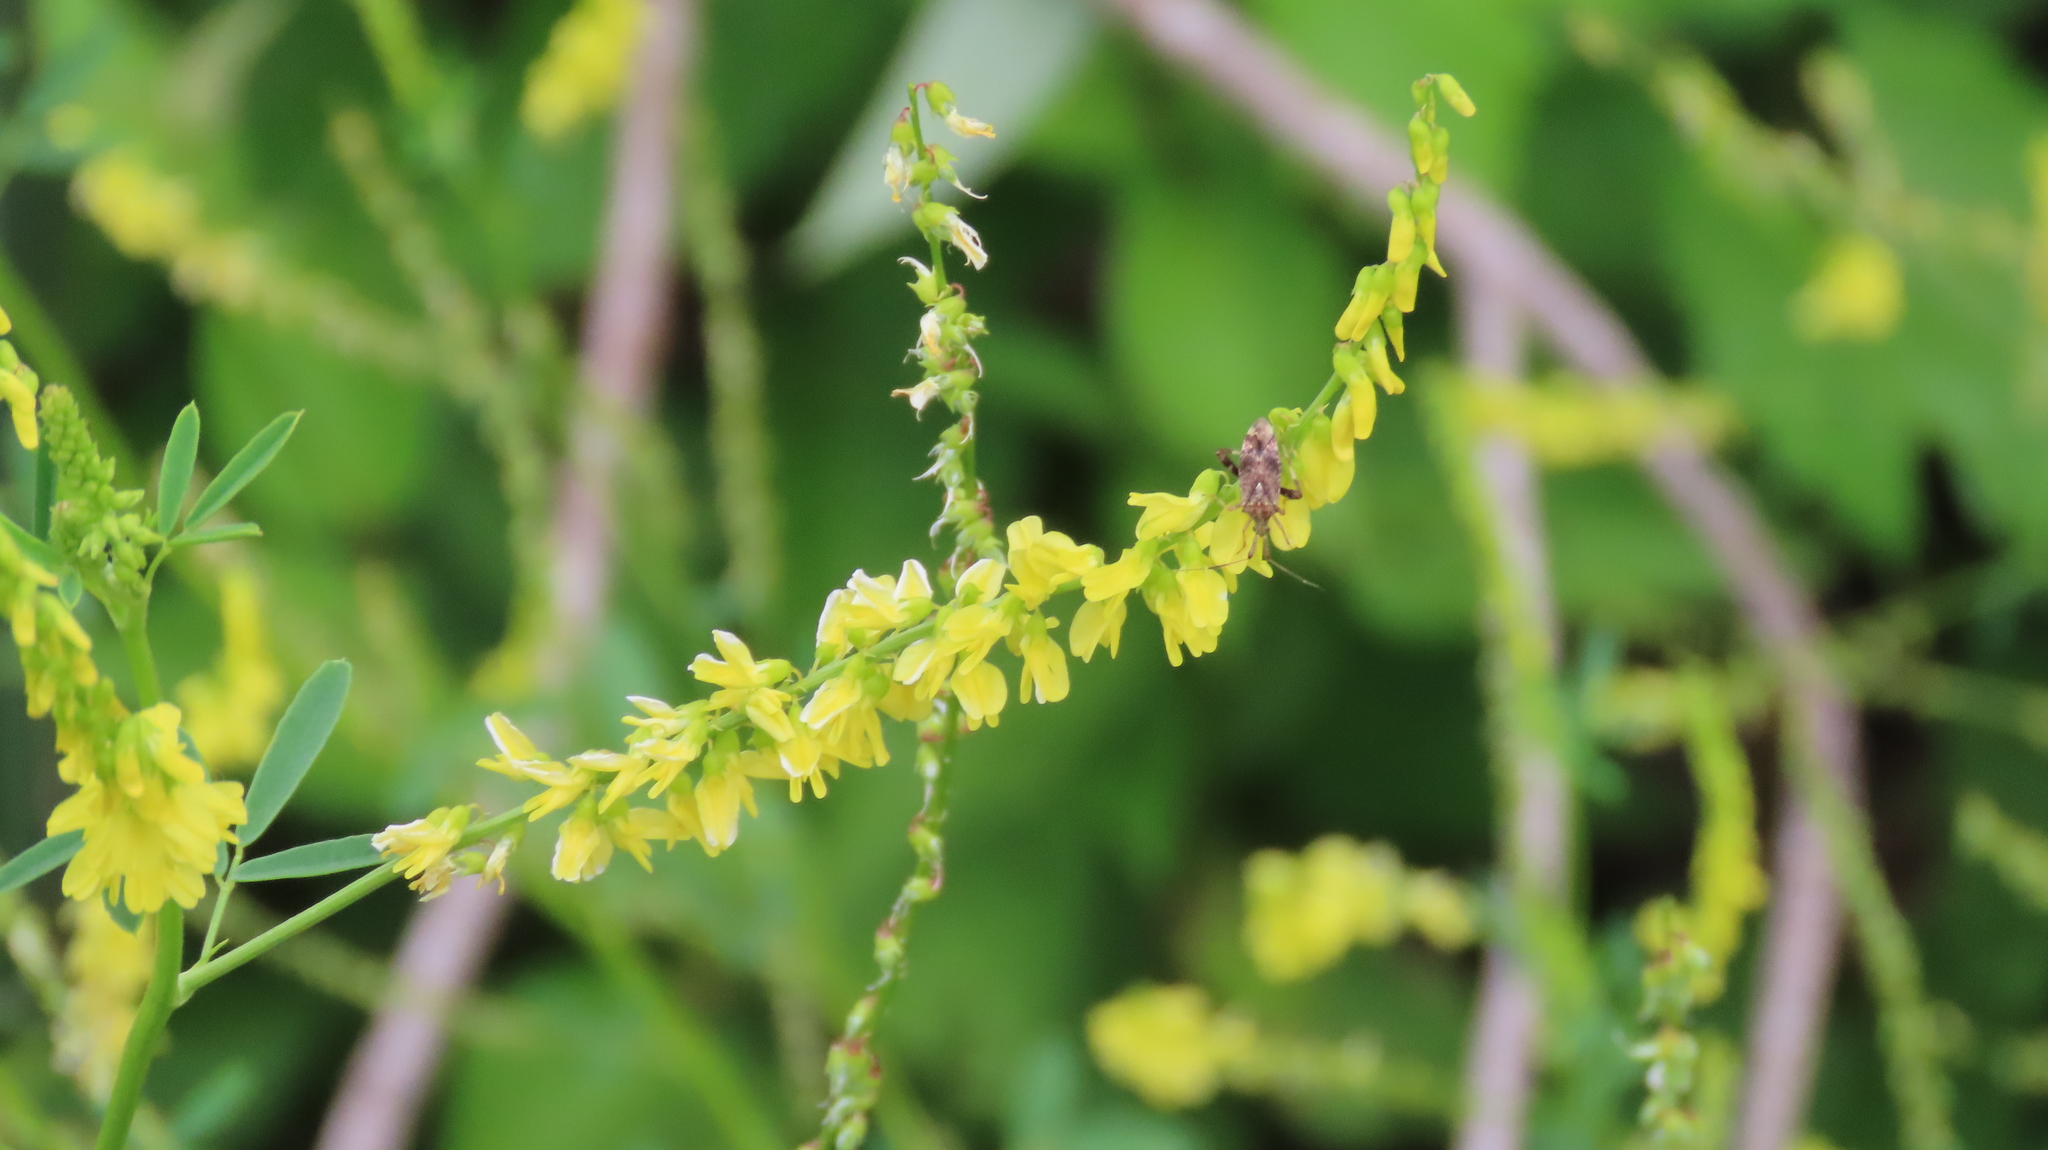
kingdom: Plantae
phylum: Tracheophyta
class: Magnoliopsida
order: Fabales
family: Fabaceae
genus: Melilotus
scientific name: Melilotus officinalis
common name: Sweetclover
